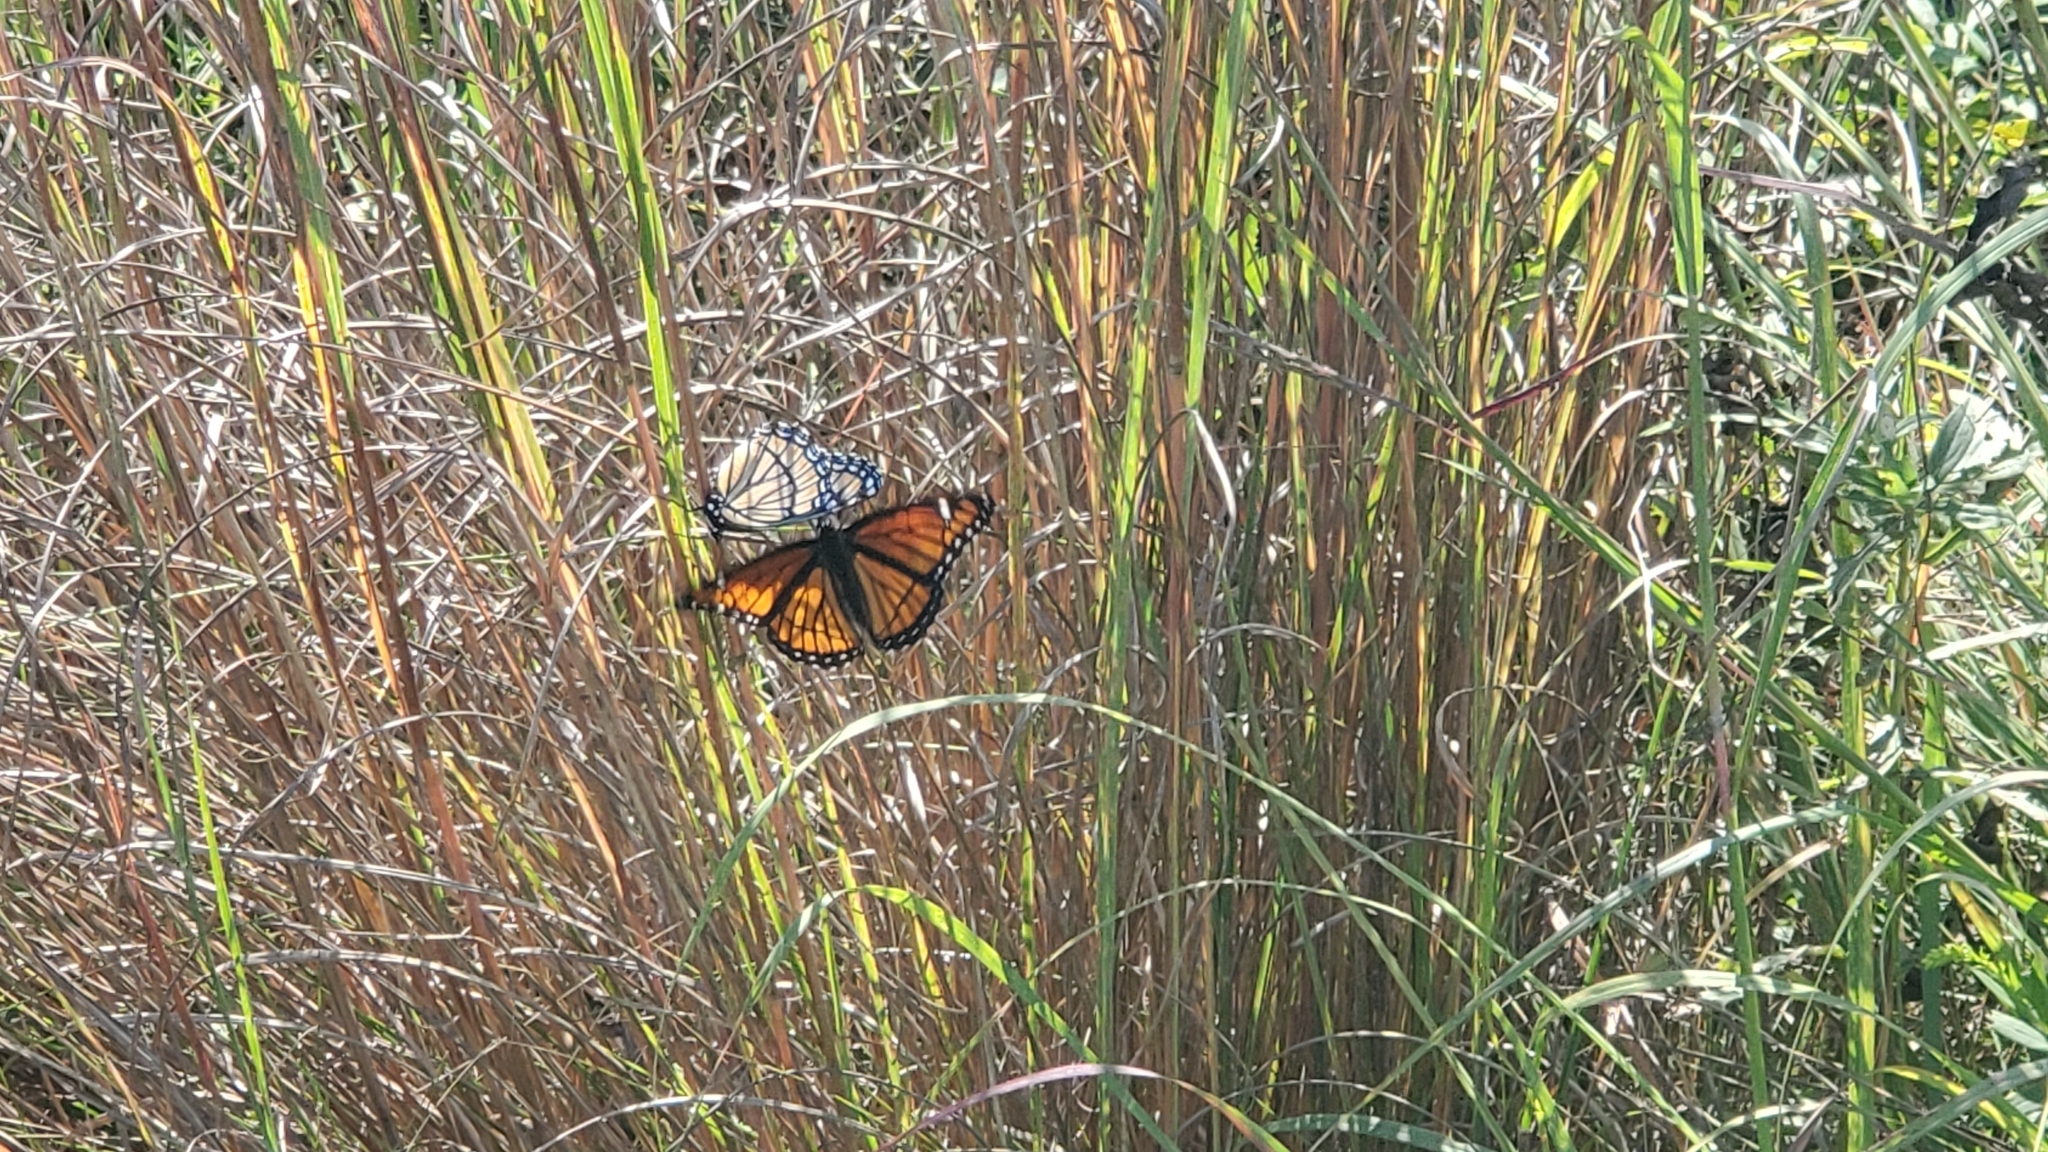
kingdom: Animalia
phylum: Arthropoda
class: Insecta
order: Lepidoptera
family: Nymphalidae
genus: Limenitis
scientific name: Limenitis archippus
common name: Viceroy
